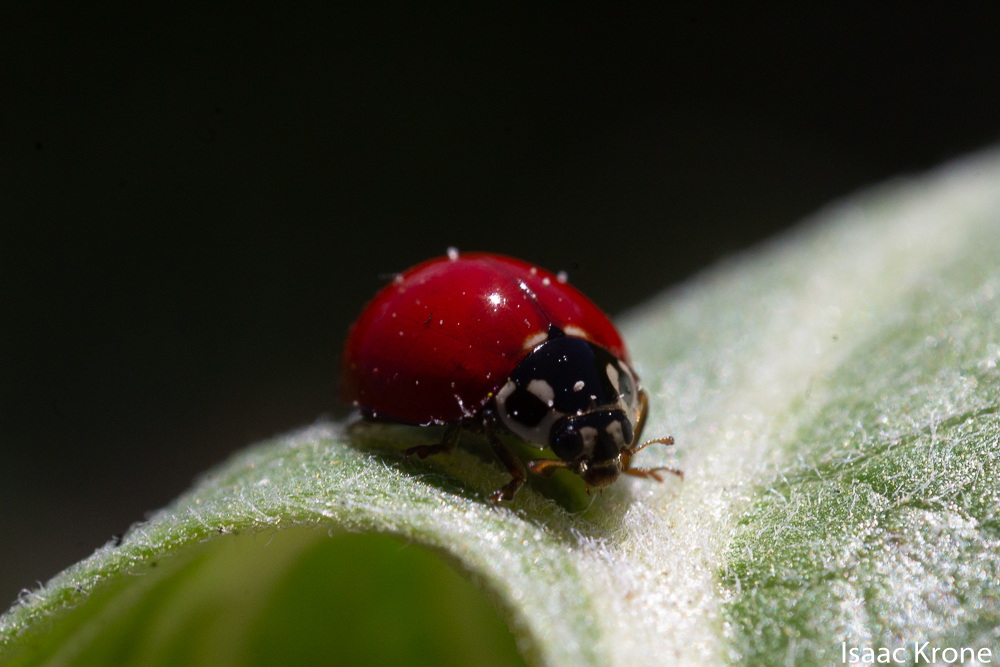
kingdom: Animalia
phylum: Arthropoda
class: Insecta
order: Coleoptera
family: Coccinellidae
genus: Cycloneda
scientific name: Cycloneda polita
